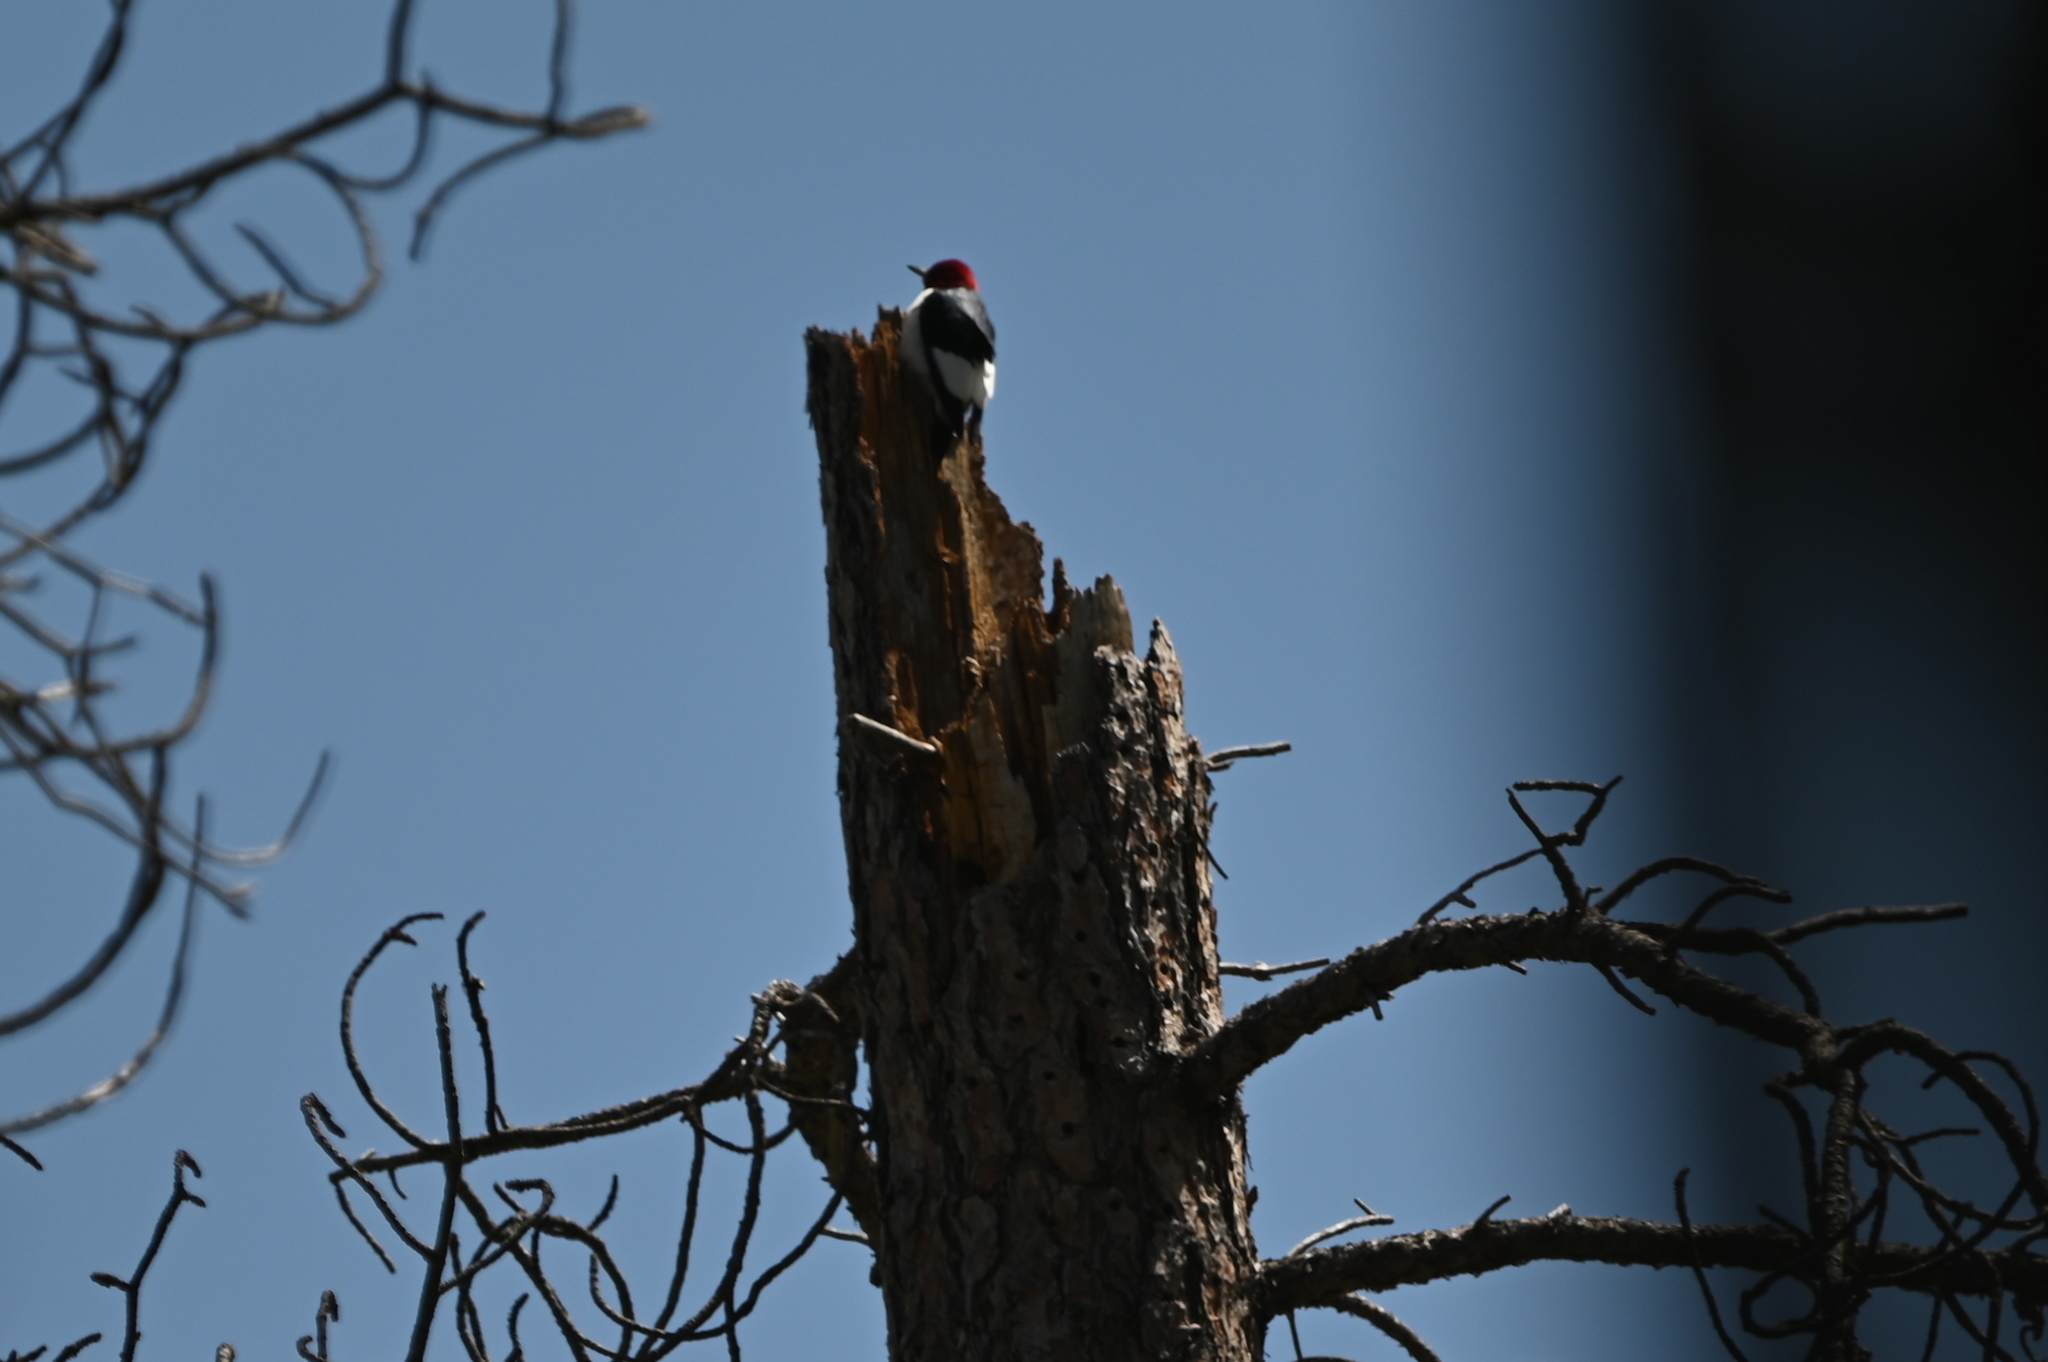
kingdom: Animalia
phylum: Chordata
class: Aves
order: Piciformes
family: Picidae
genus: Melanerpes
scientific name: Melanerpes erythrocephalus
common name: Red-headed woodpecker
